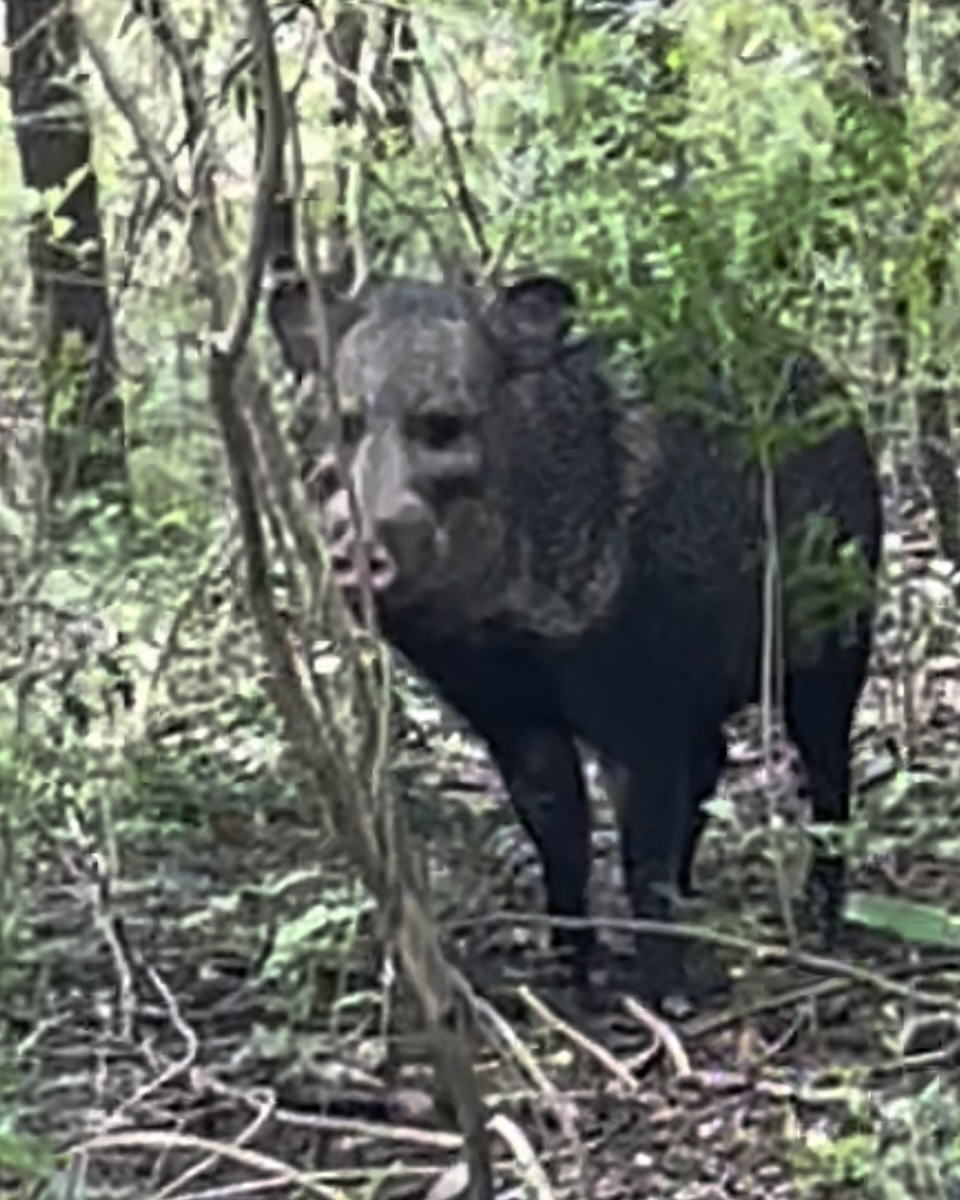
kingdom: Animalia
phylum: Chordata
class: Mammalia
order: Artiodactyla
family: Tayassuidae
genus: Pecari
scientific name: Pecari tajacu
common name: Collared peccary
